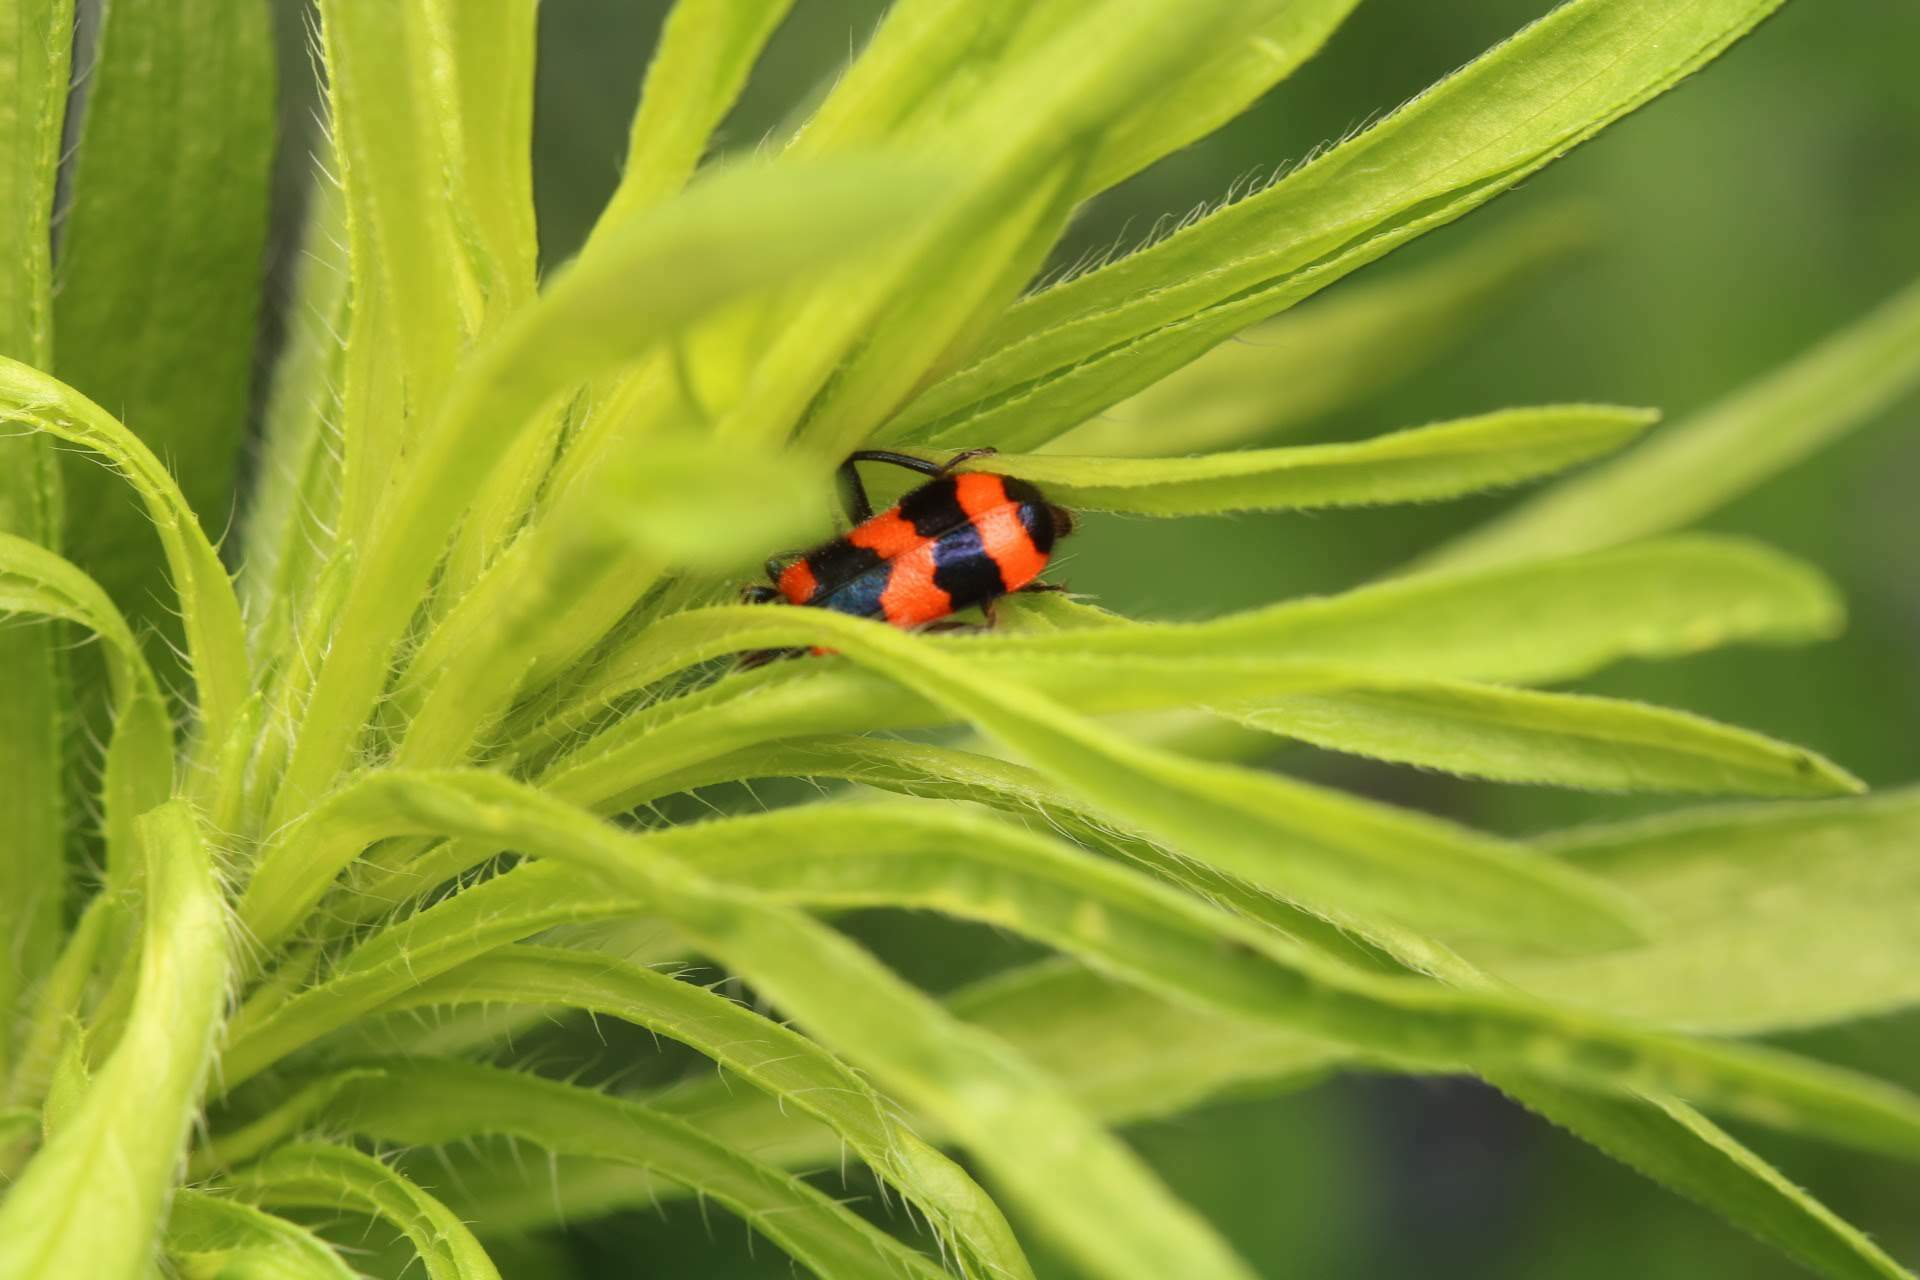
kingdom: Animalia
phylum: Arthropoda
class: Insecta
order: Coleoptera
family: Cleridae
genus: Trichodes
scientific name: Trichodes apiarius
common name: Bee-eating beetle
